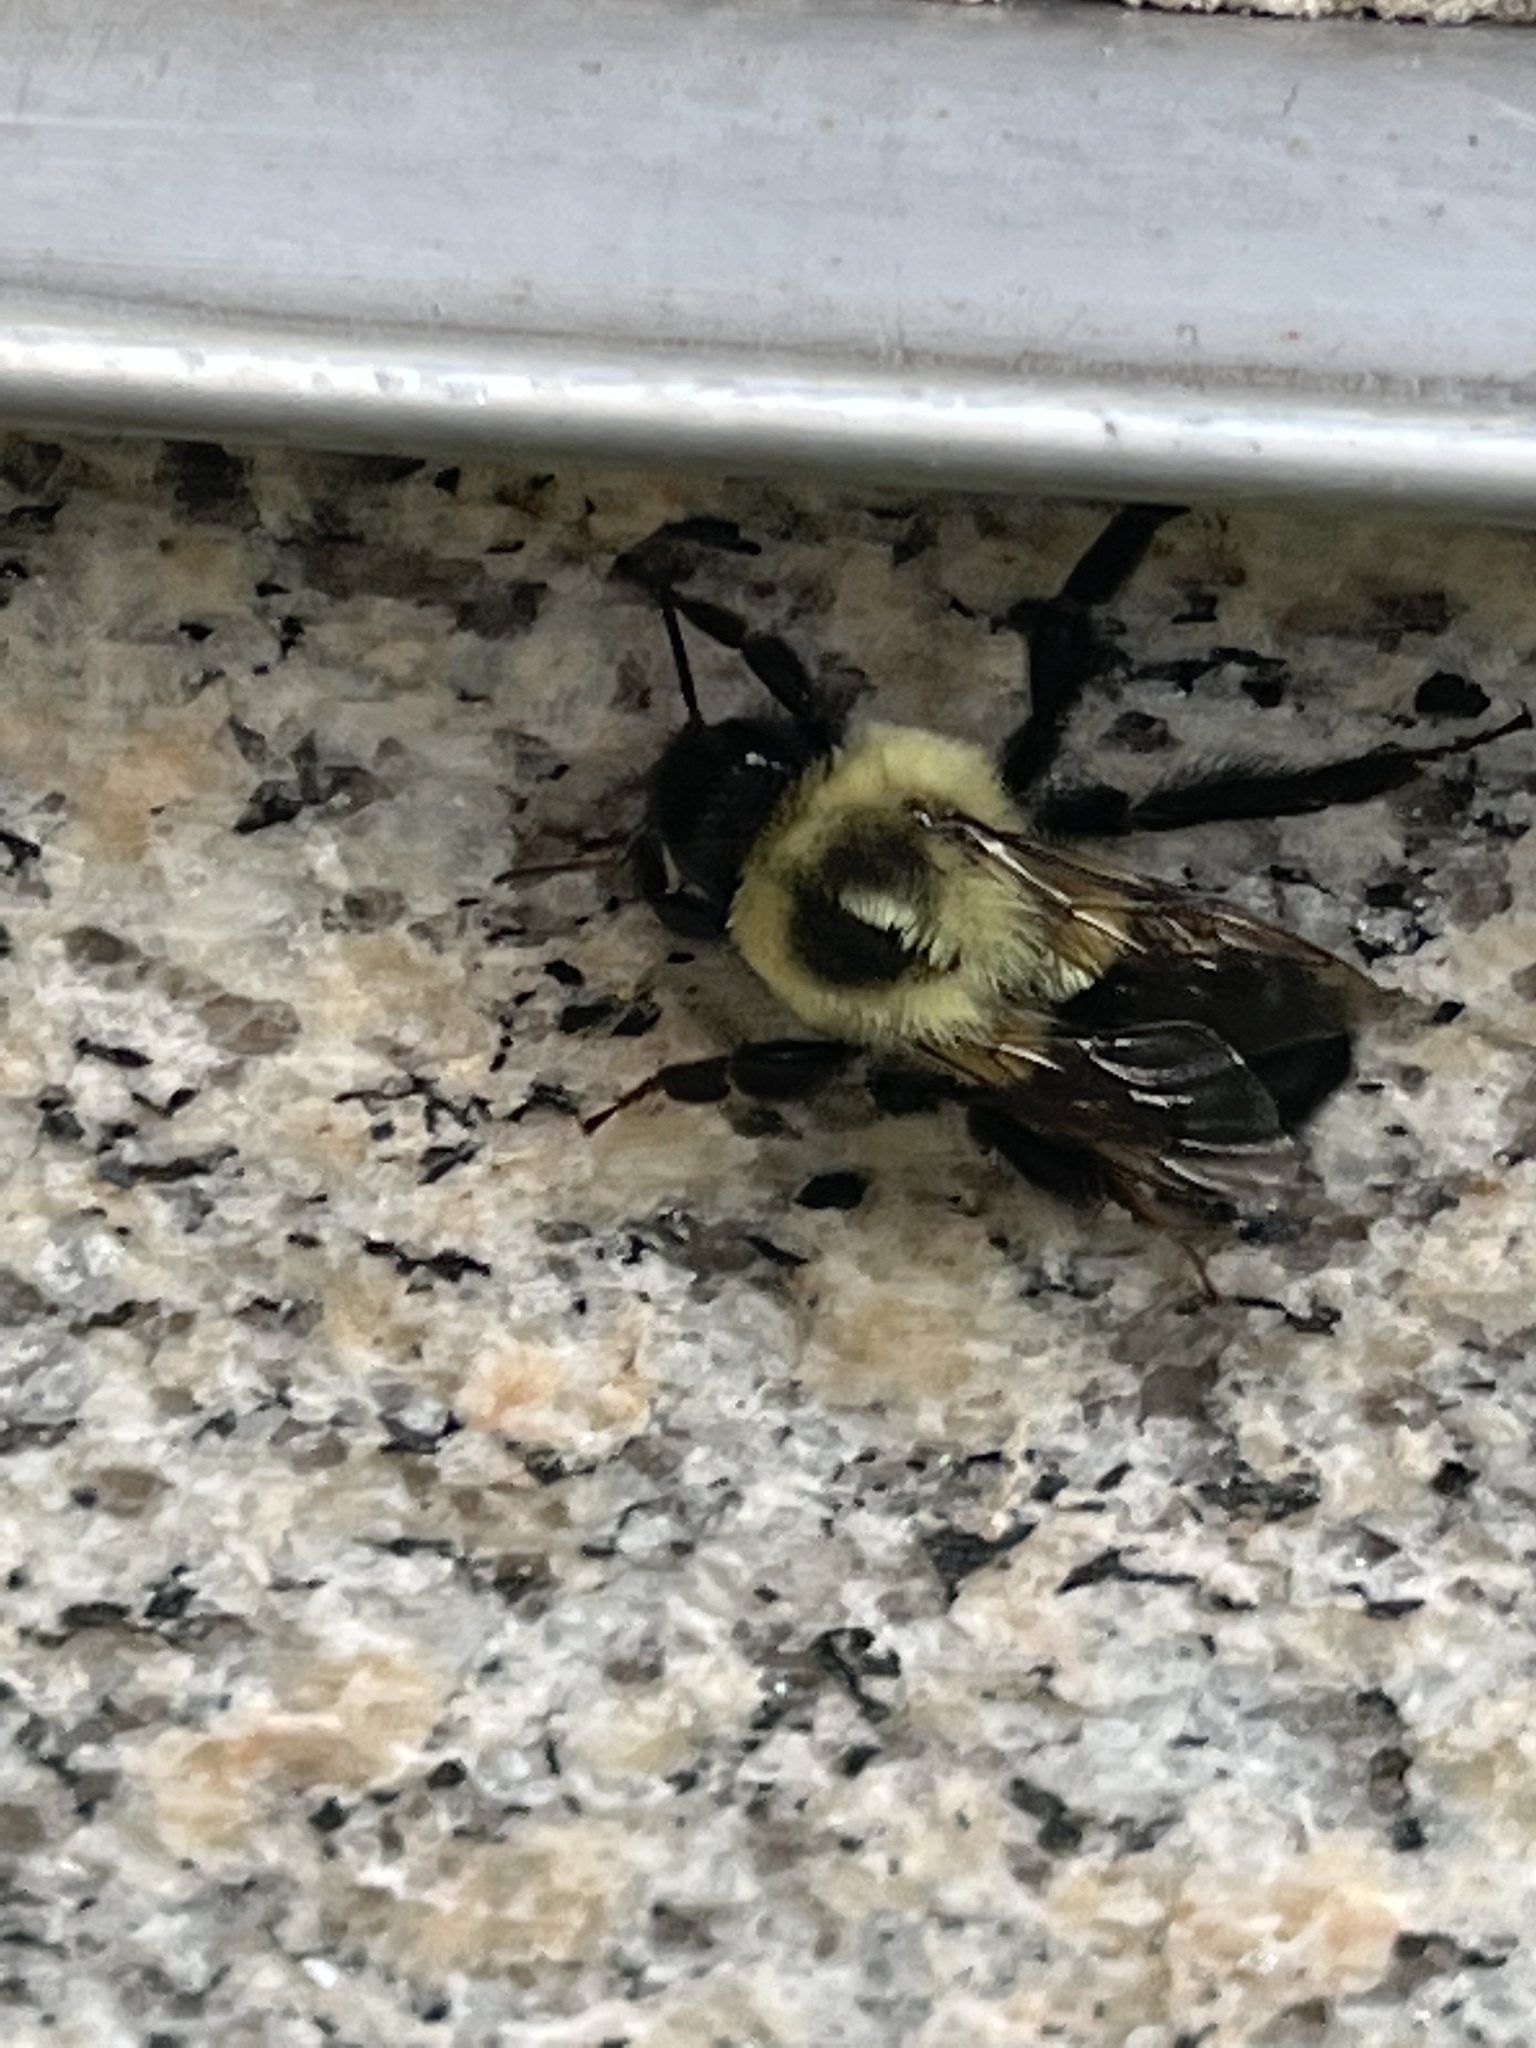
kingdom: Animalia
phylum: Arthropoda
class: Insecta
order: Hymenoptera
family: Apidae
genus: Bombus
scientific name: Bombus impatiens
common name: Common eastern bumble bee
